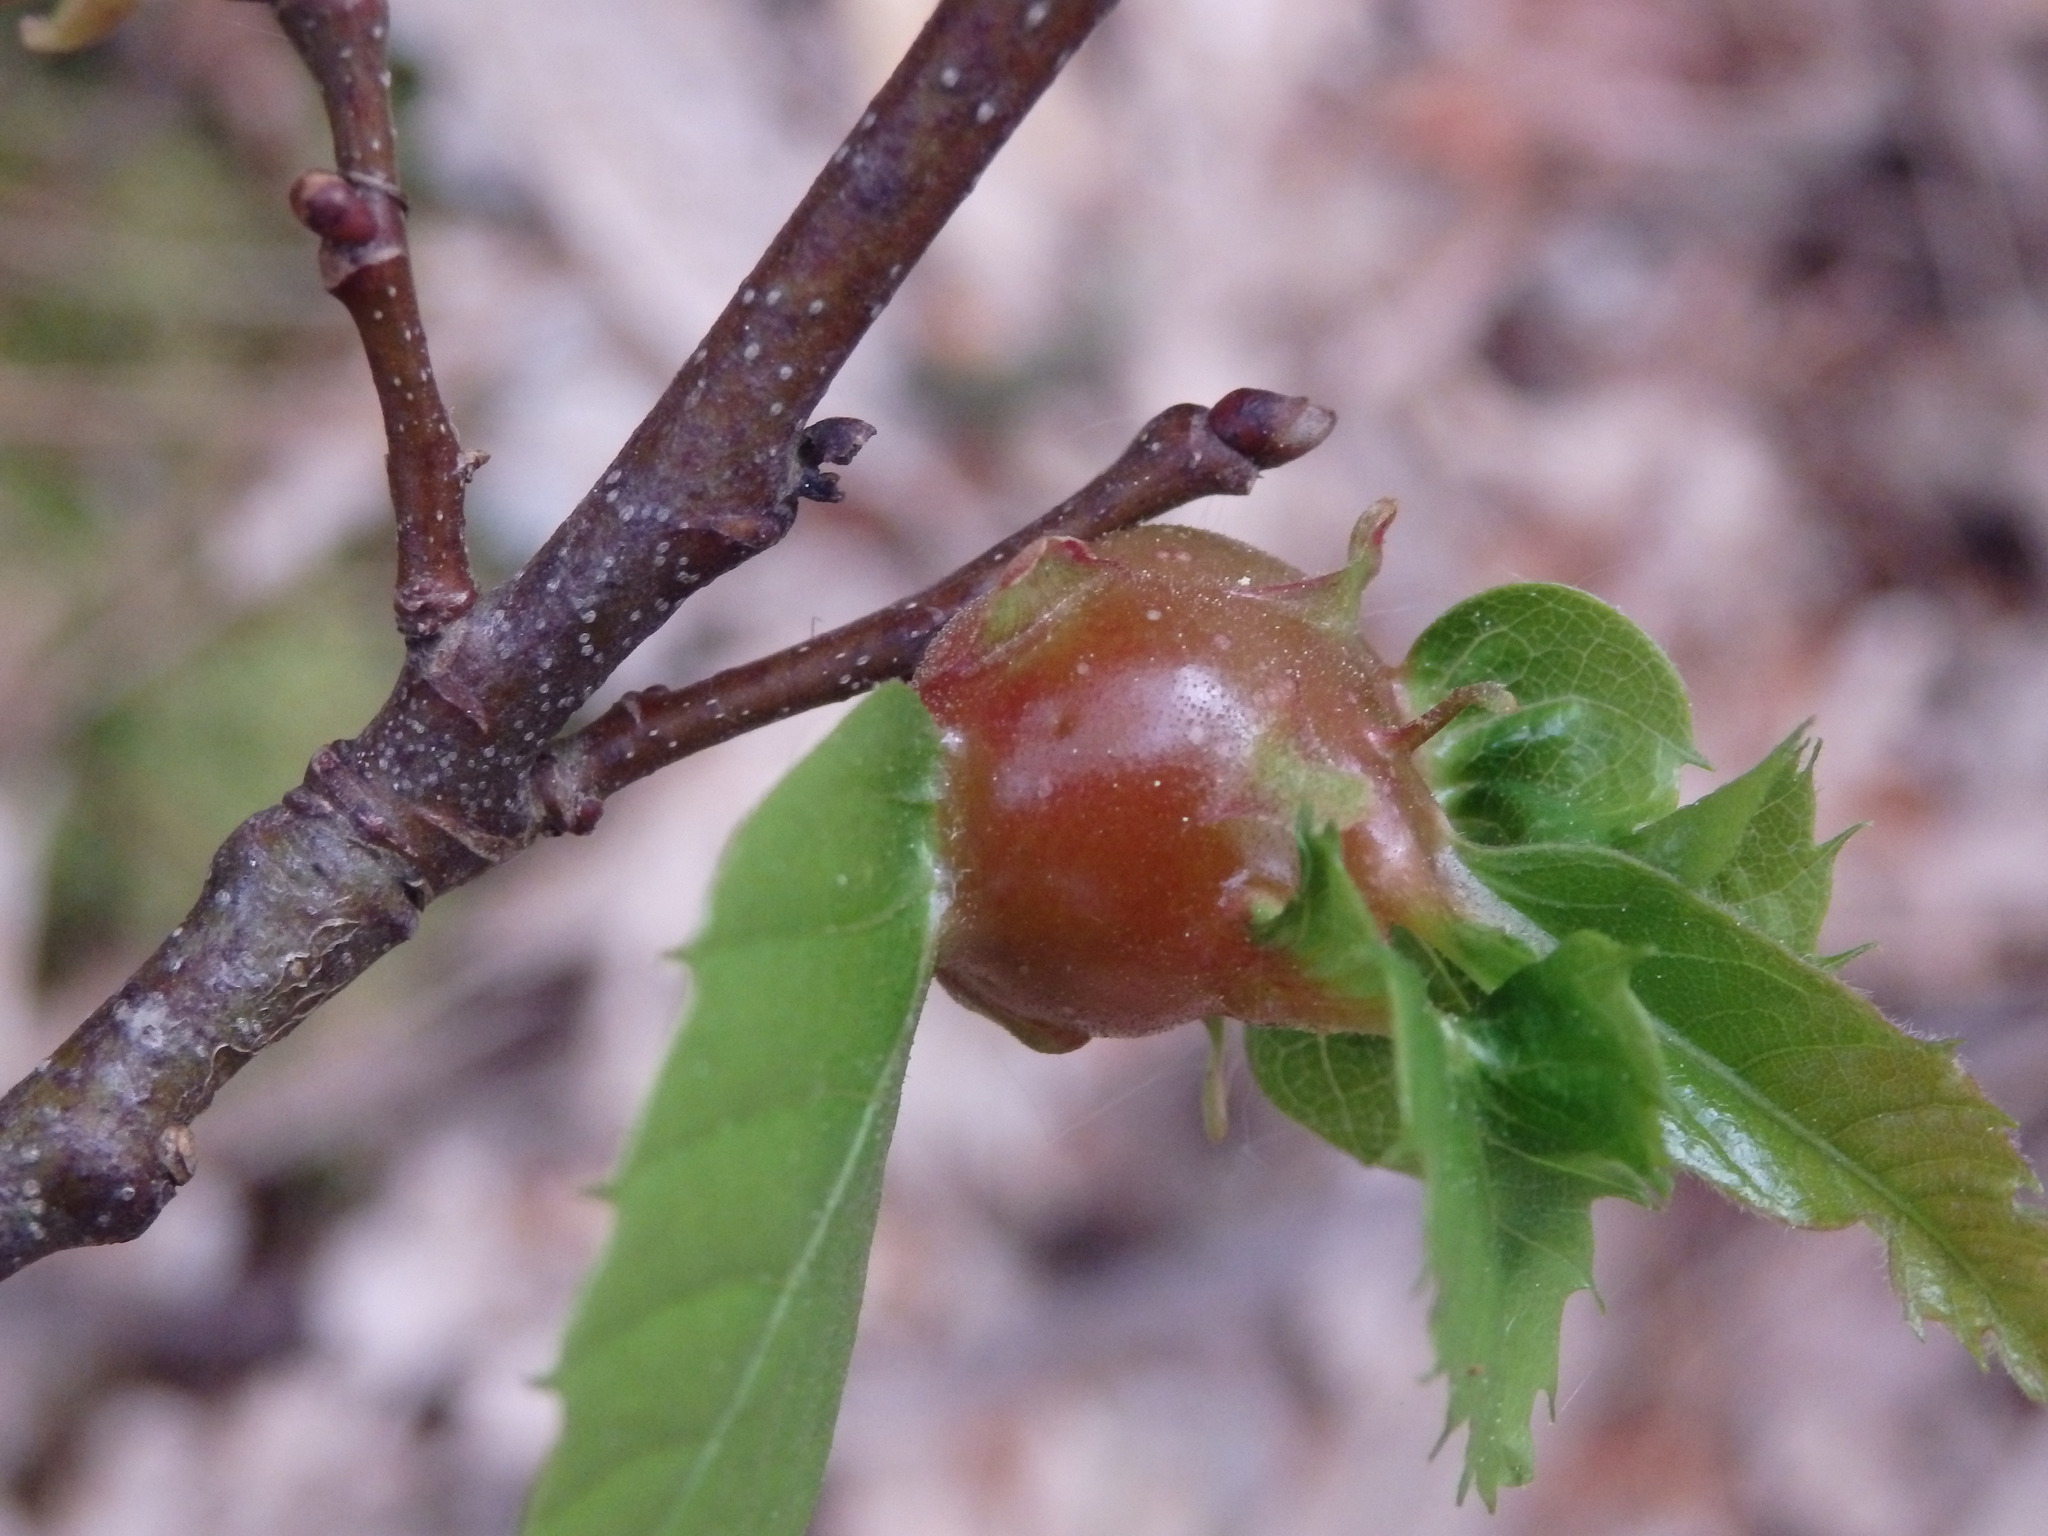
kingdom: Animalia
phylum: Arthropoda
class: Insecta
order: Hymenoptera
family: Cynipidae
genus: Dryocosmus
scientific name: Dryocosmus kuriphilus
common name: Asian chestnut gall wasp
